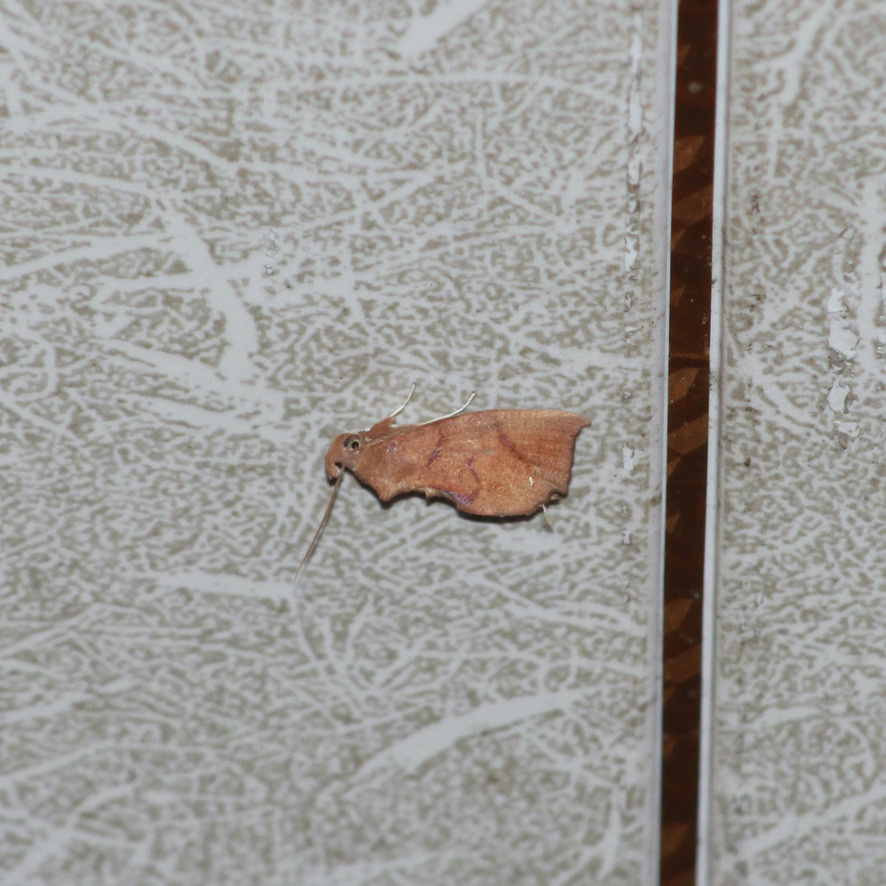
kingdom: Animalia
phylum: Arthropoda
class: Insecta
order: Lepidoptera
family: Erebidae
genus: Goniapteryx
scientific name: Goniapteryx servia
